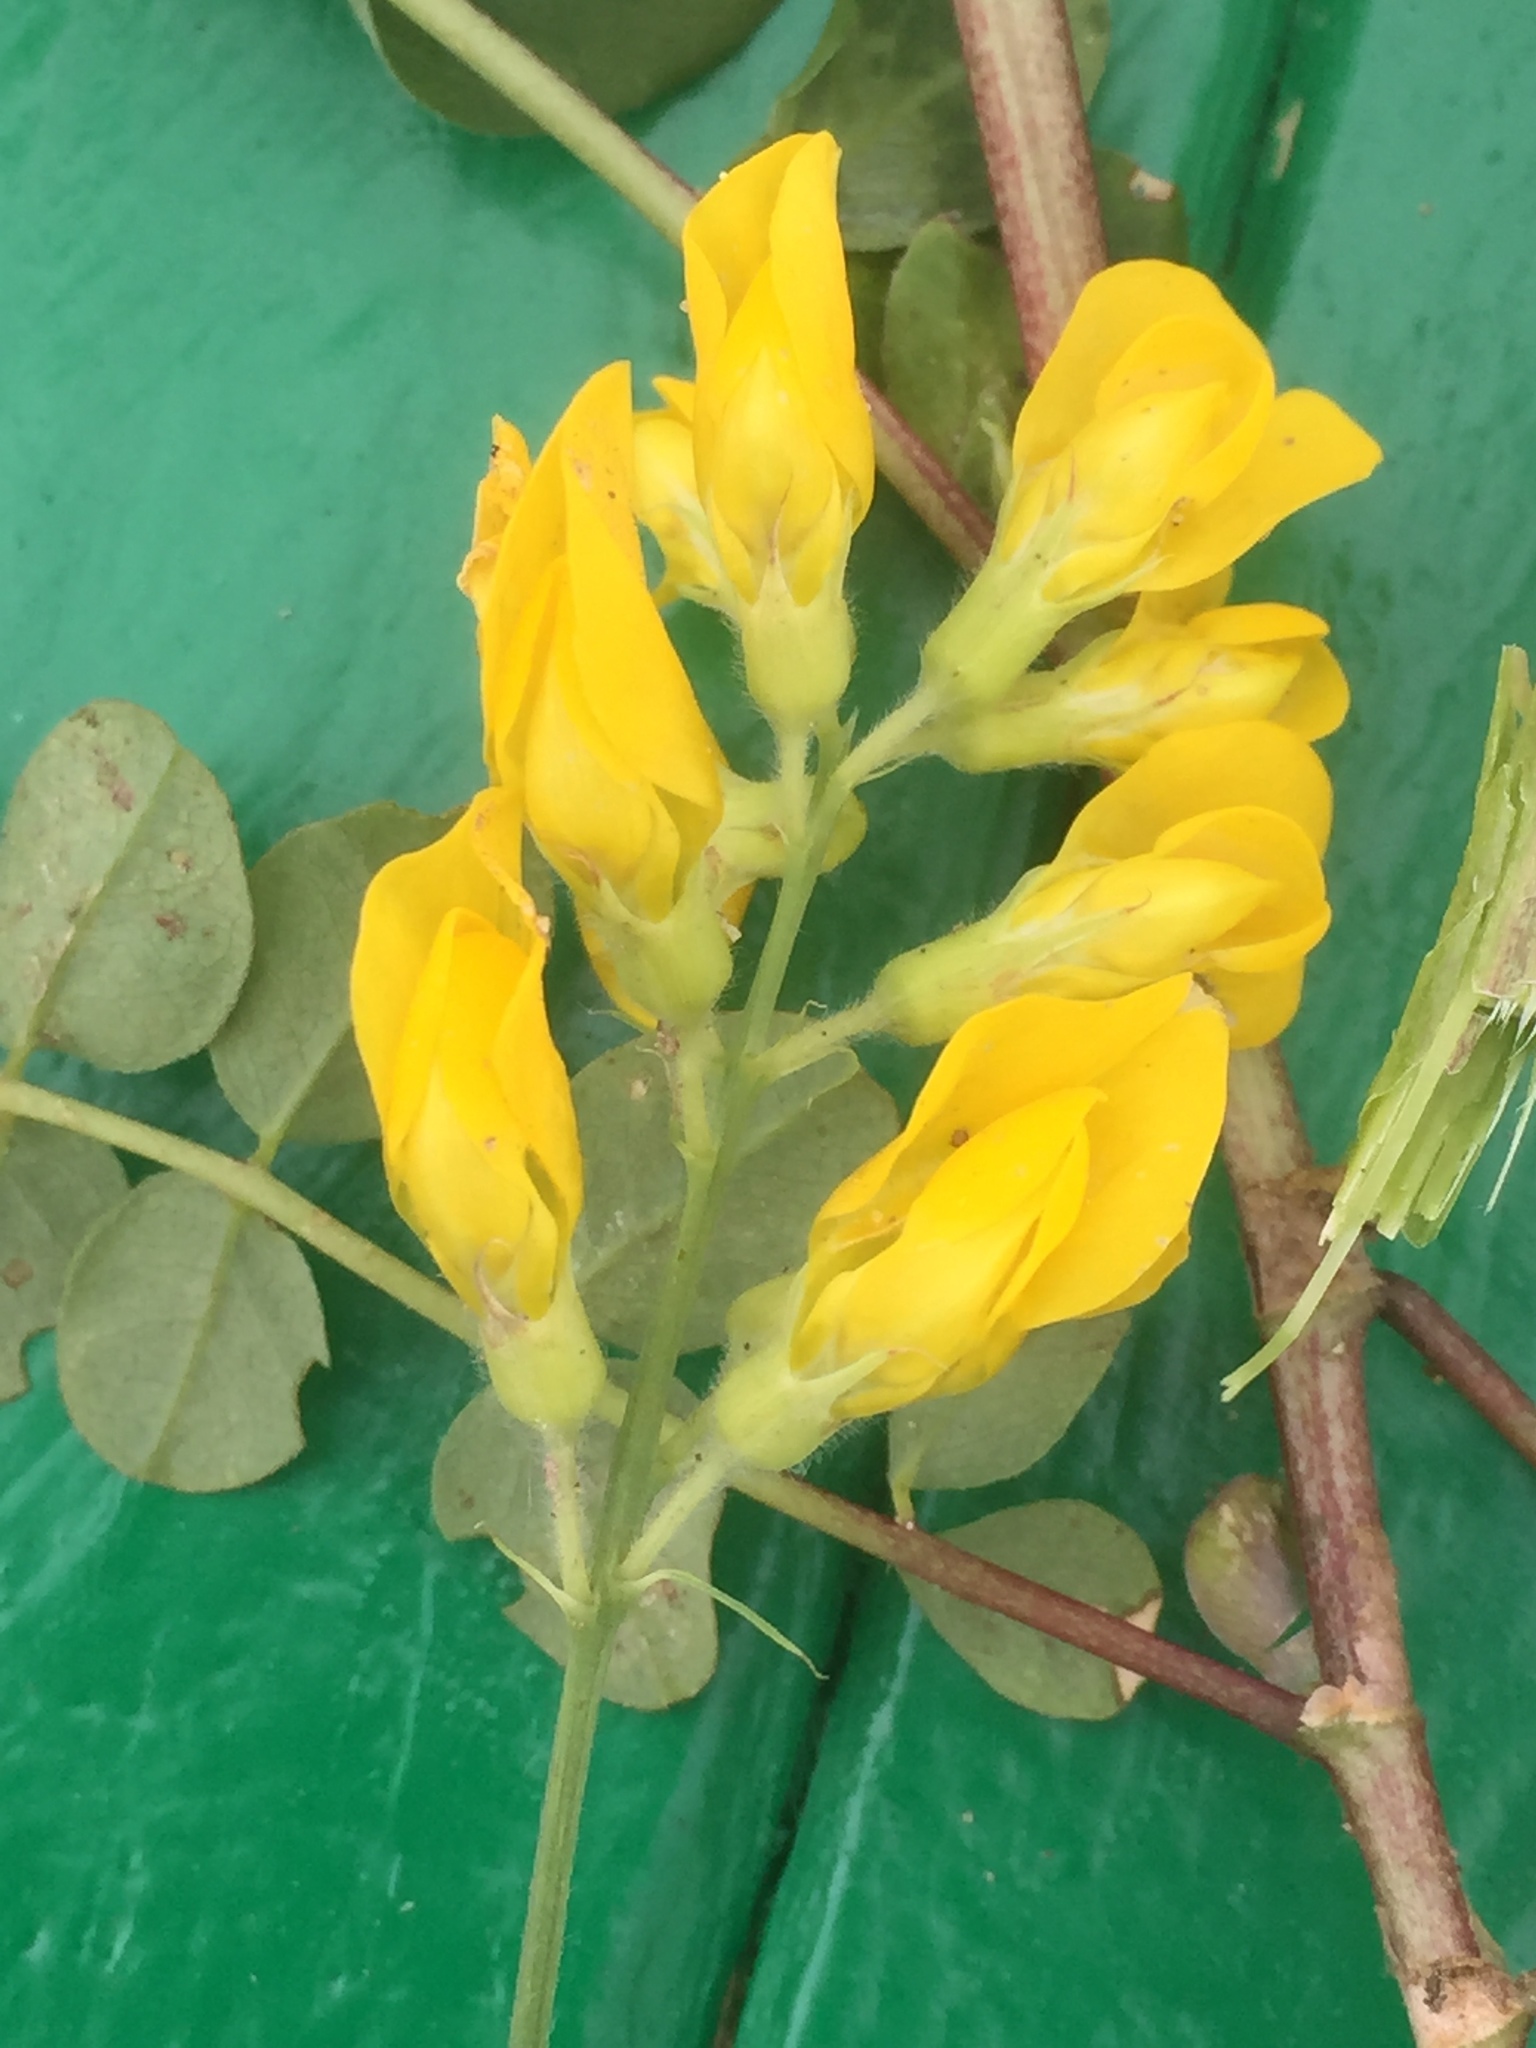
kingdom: Plantae
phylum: Tracheophyta
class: Magnoliopsida
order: Fabales
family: Fabaceae
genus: Lathyrus
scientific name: Lathyrus pratensis
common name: Meadow vetchling
